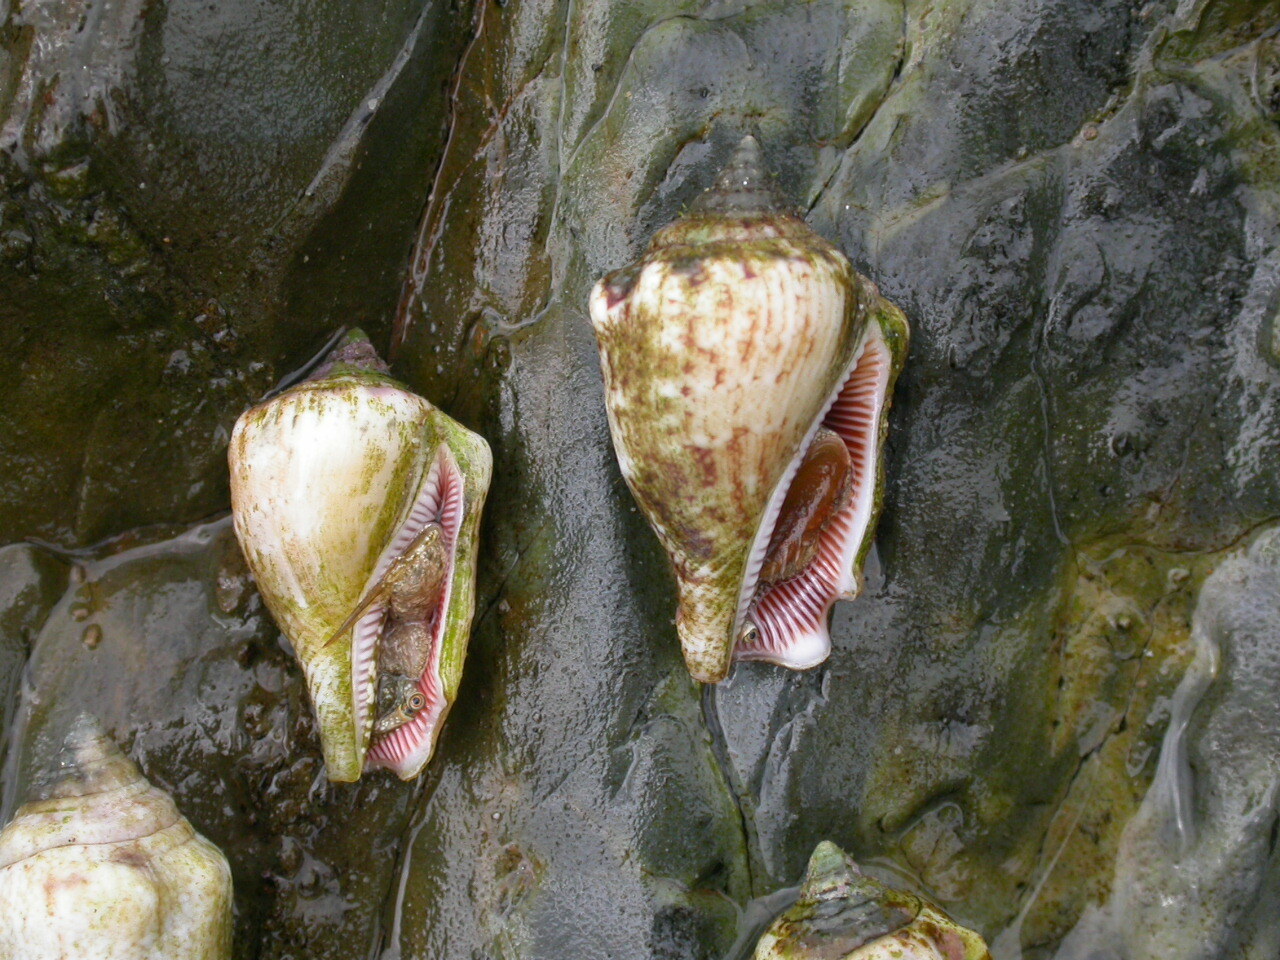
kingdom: Animalia
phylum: Mollusca
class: Gastropoda
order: Littorinimorpha
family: Strombidae
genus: Canarium
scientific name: Canarium mutabile
